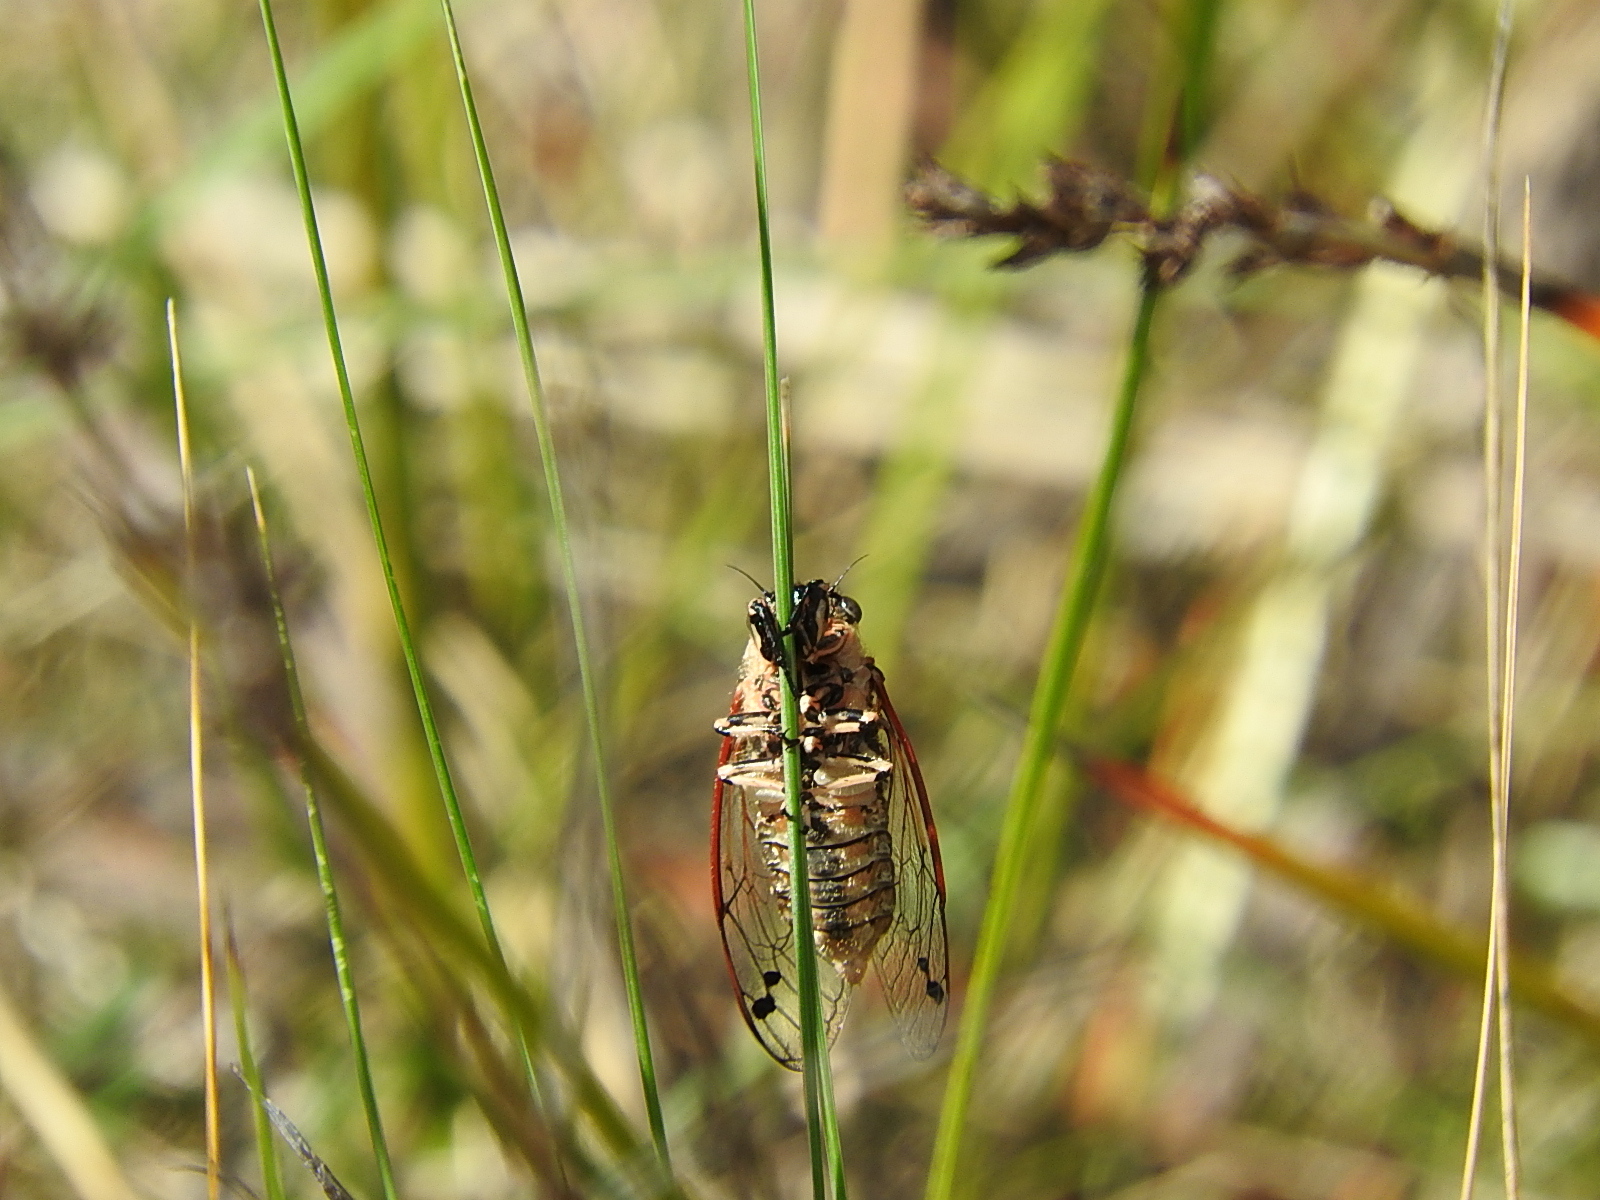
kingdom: Animalia
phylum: Arthropoda
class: Insecta
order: Hemiptera
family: Cicadidae
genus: Diemeniana
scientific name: Diemeniana euronotiana
